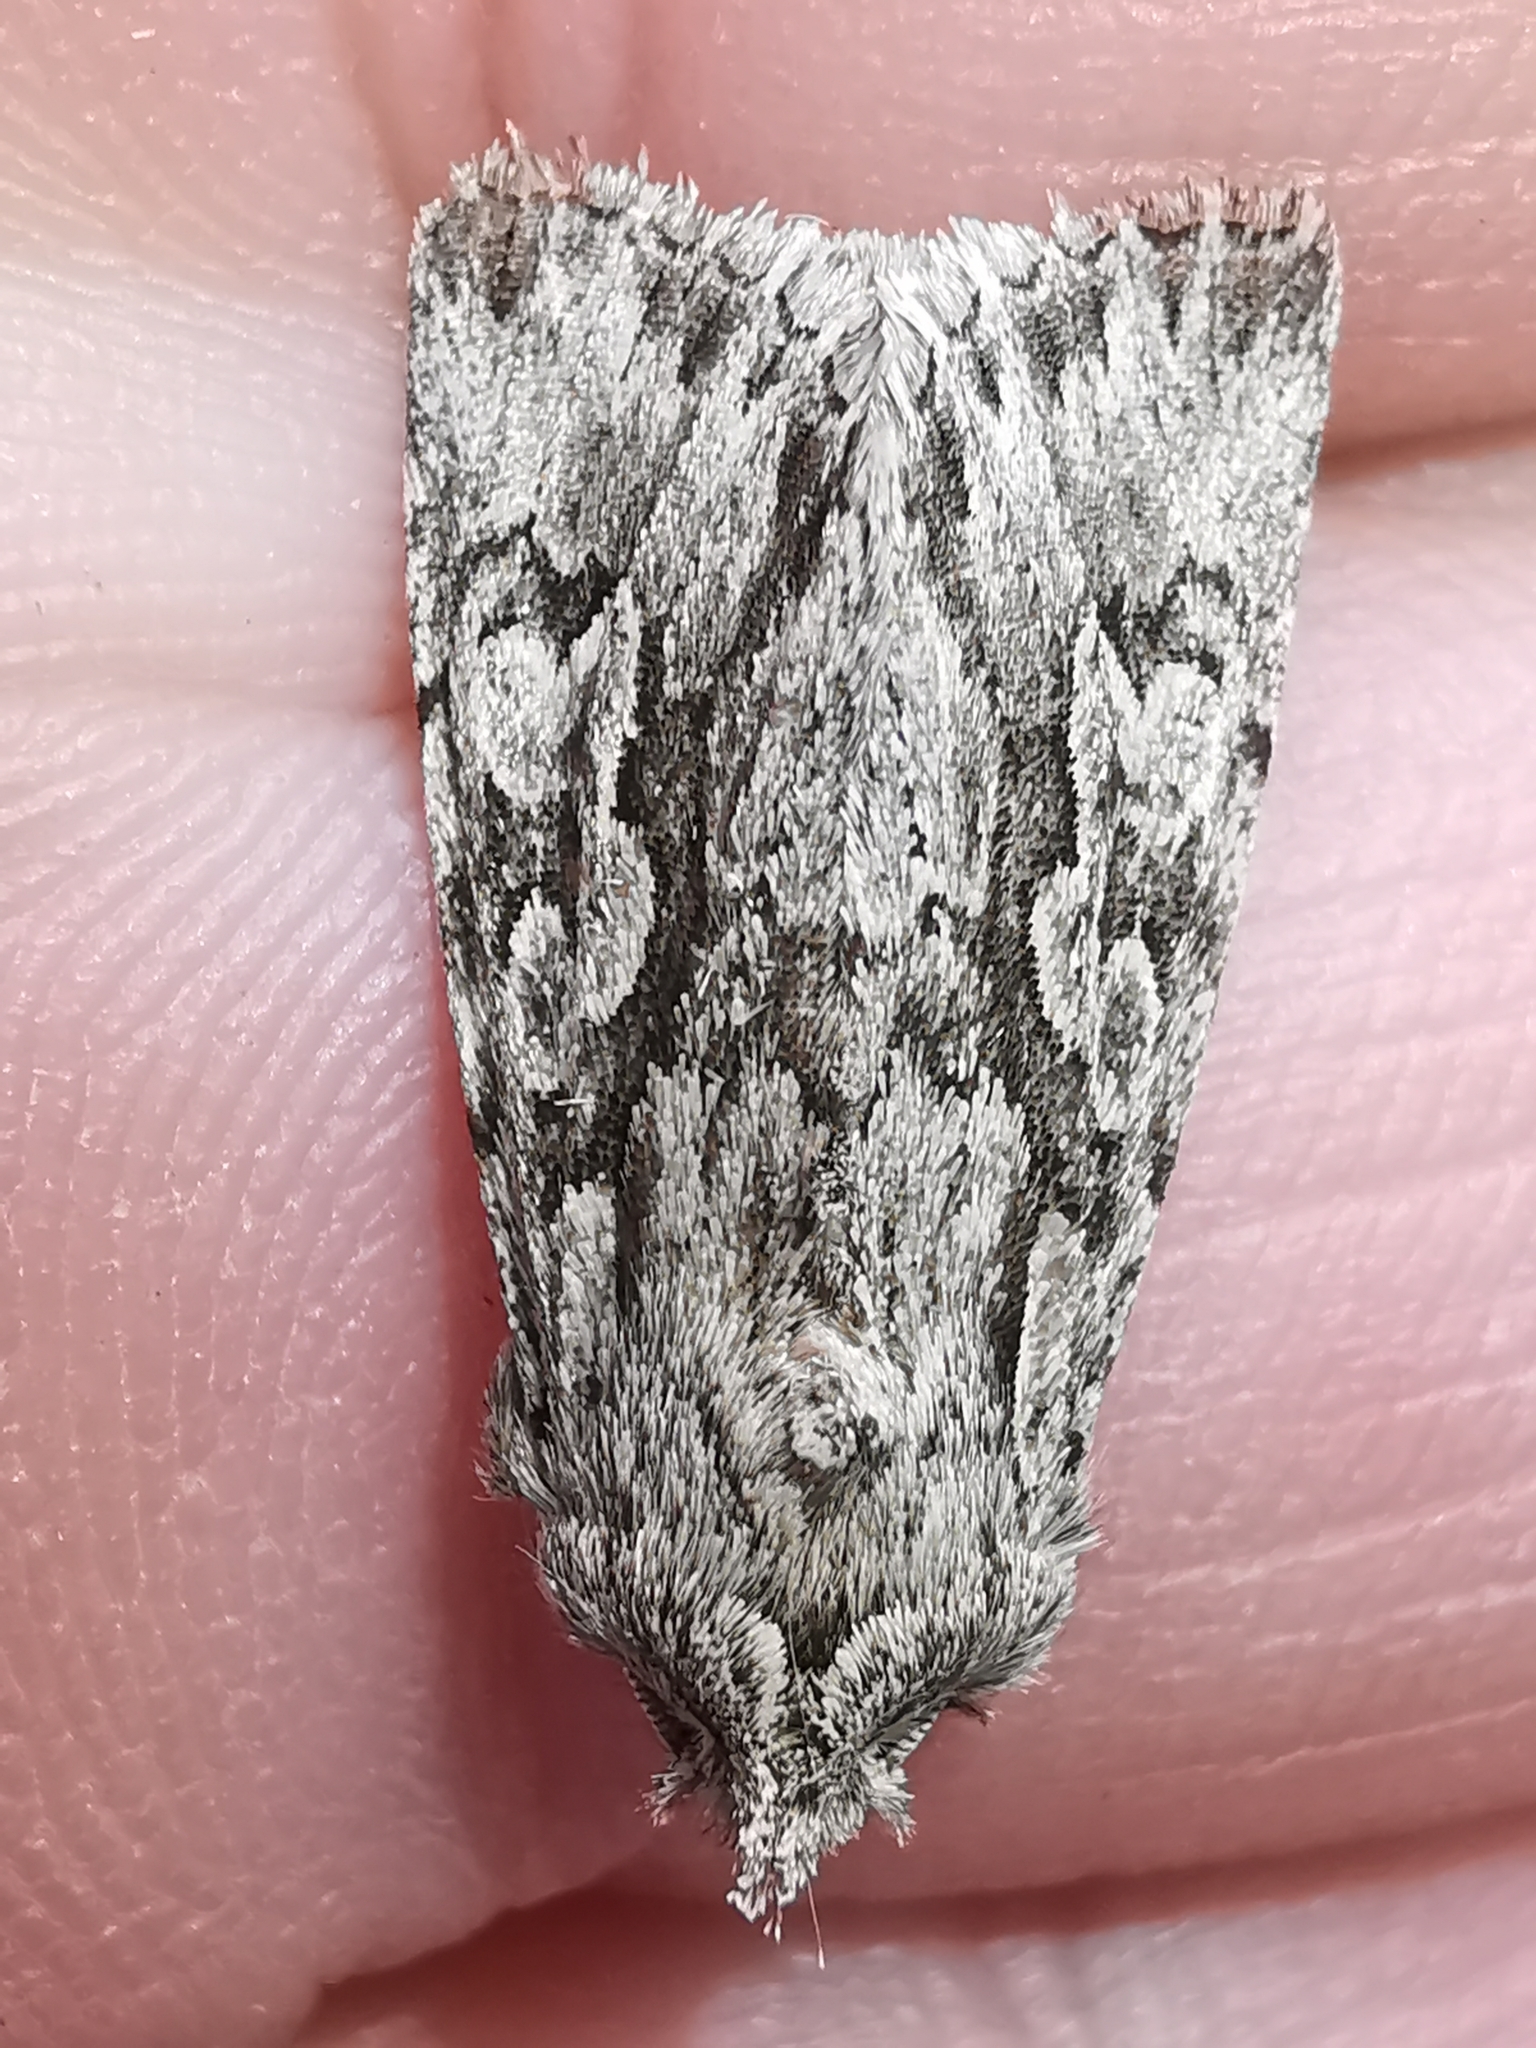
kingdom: Animalia
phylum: Arthropoda
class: Insecta
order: Lepidoptera
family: Noctuidae
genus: Xylocampa
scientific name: Xylocampa areola
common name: Early grey
